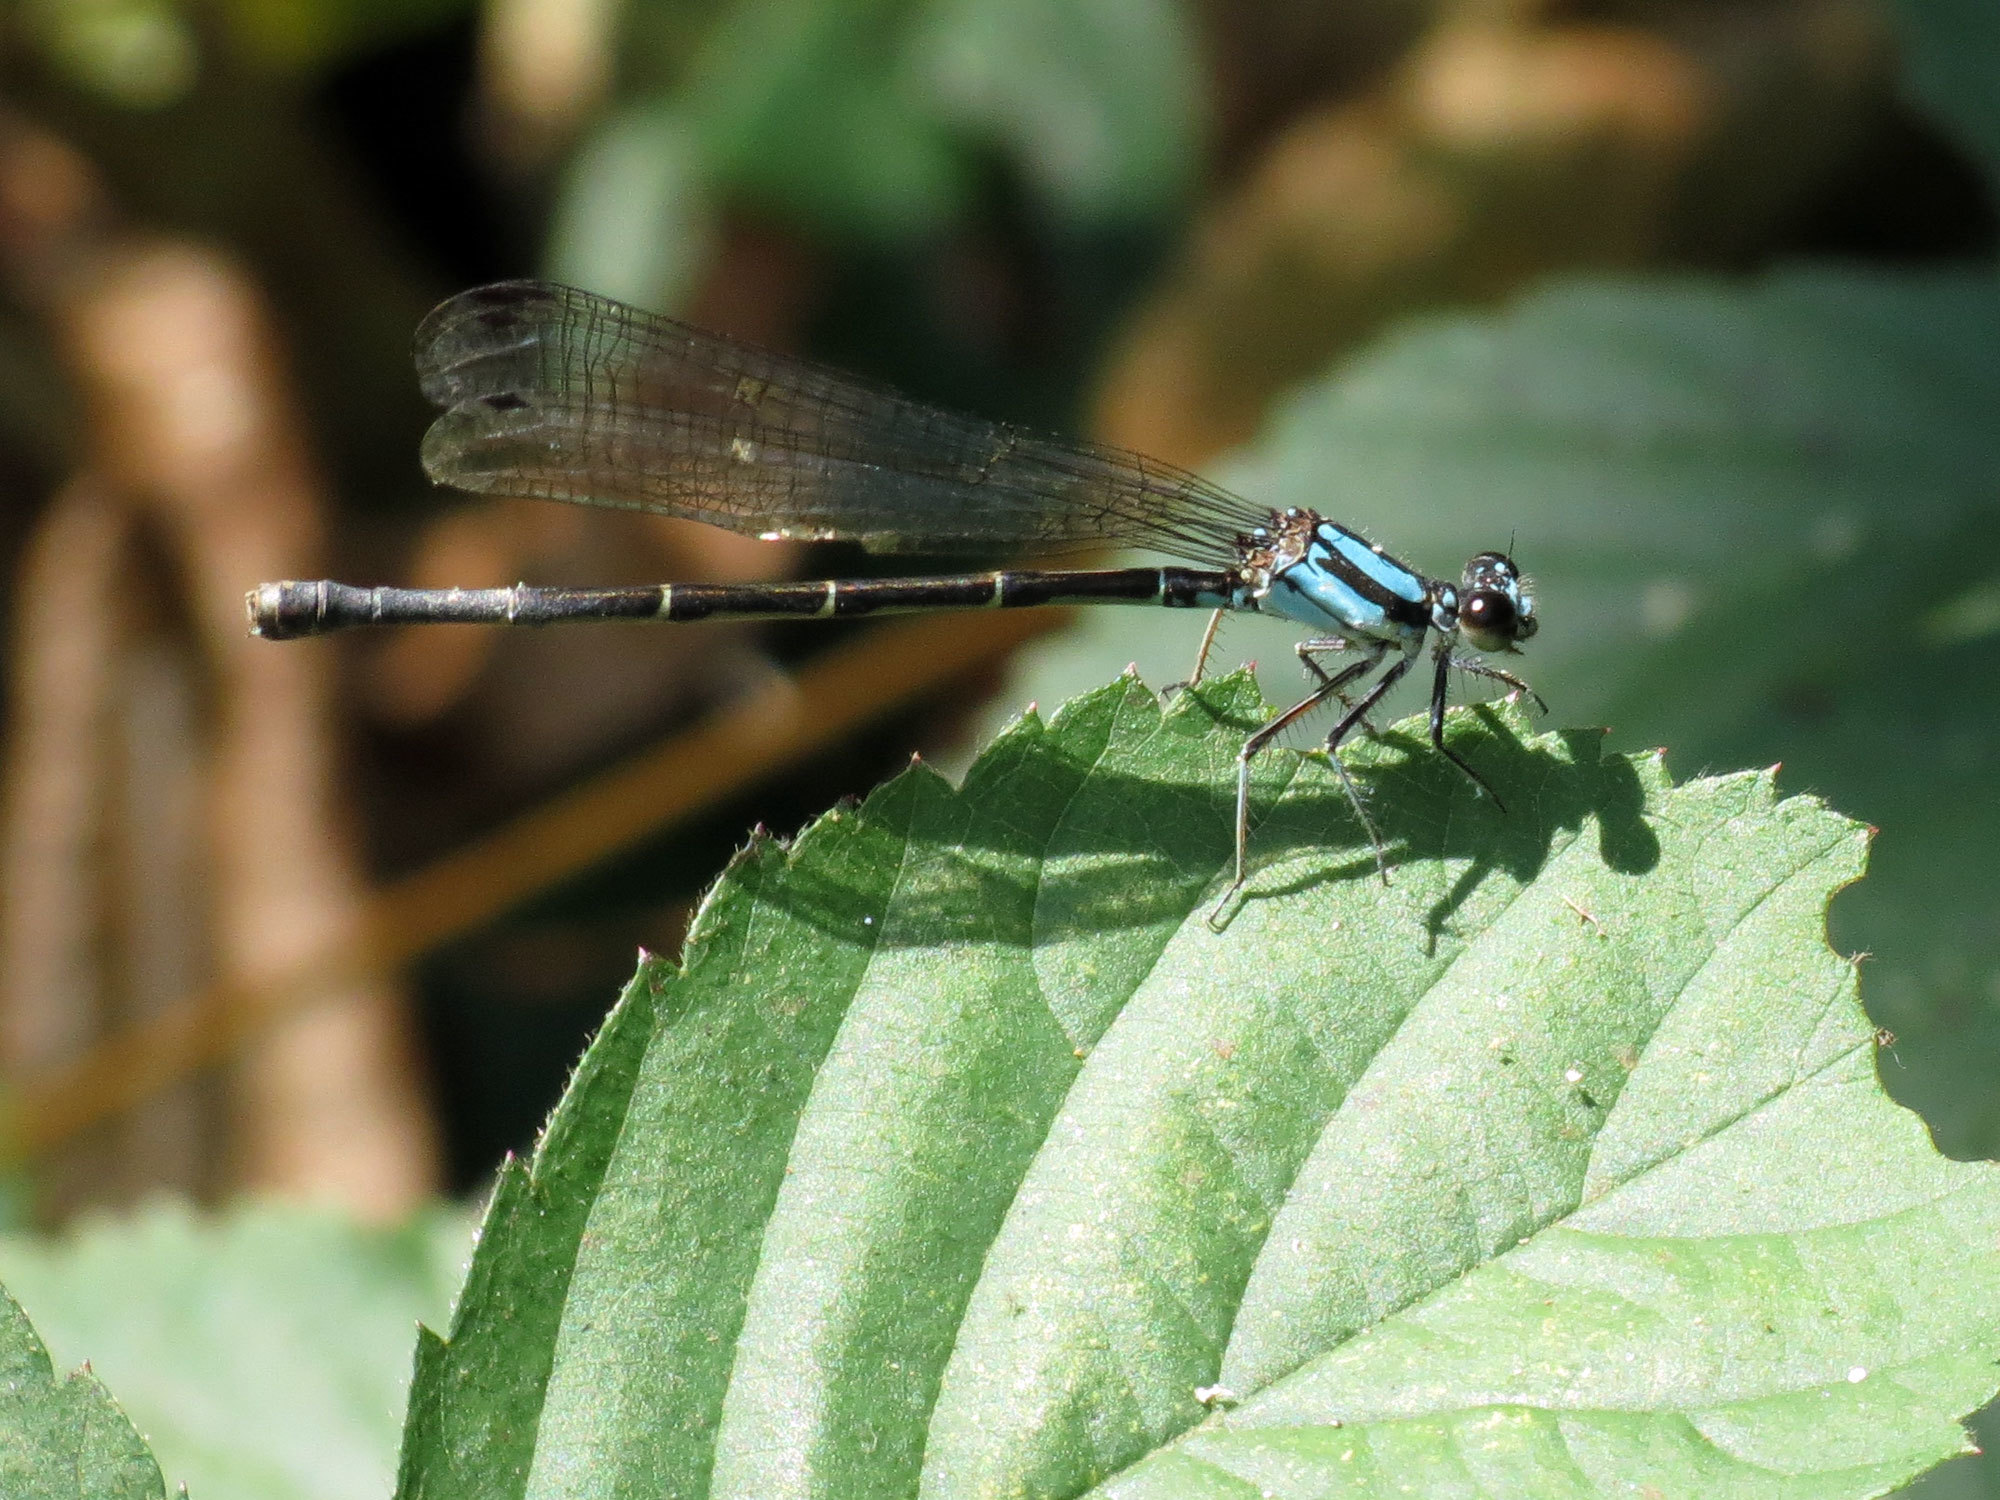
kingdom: Animalia
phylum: Arthropoda
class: Insecta
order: Odonata
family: Coenagrionidae
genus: Argia
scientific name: Argia tibialis
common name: Blue-tipped dancer
